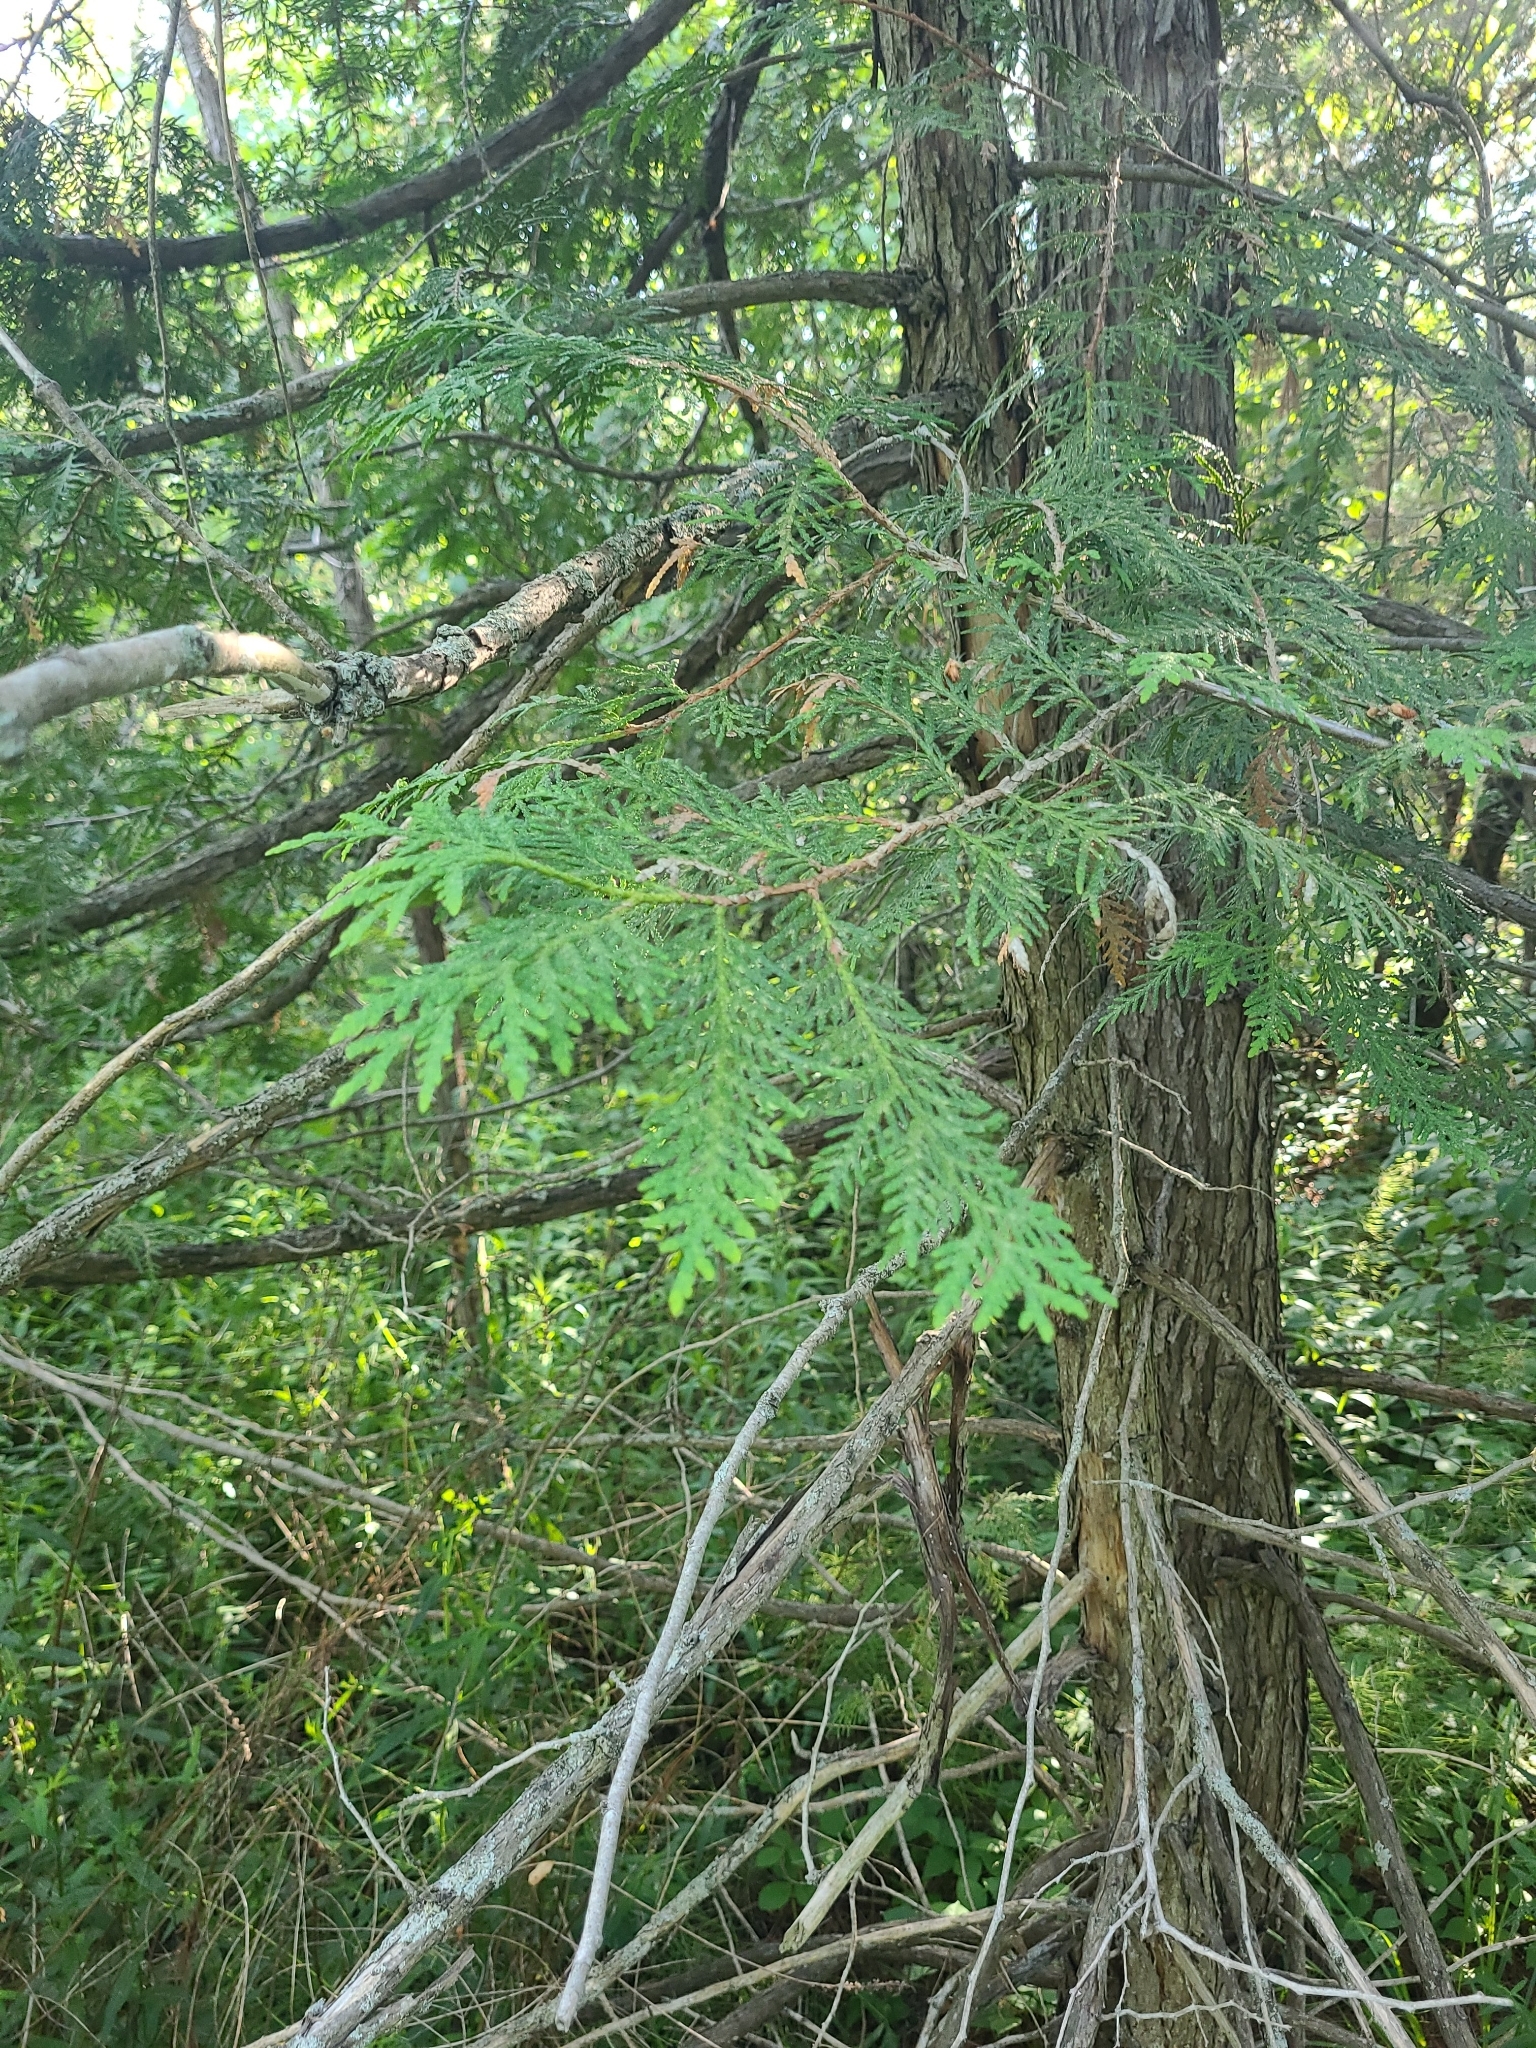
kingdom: Plantae
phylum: Tracheophyta
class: Pinopsida
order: Pinales
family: Cupressaceae
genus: Thuja
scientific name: Thuja occidentalis
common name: Northern white-cedar
